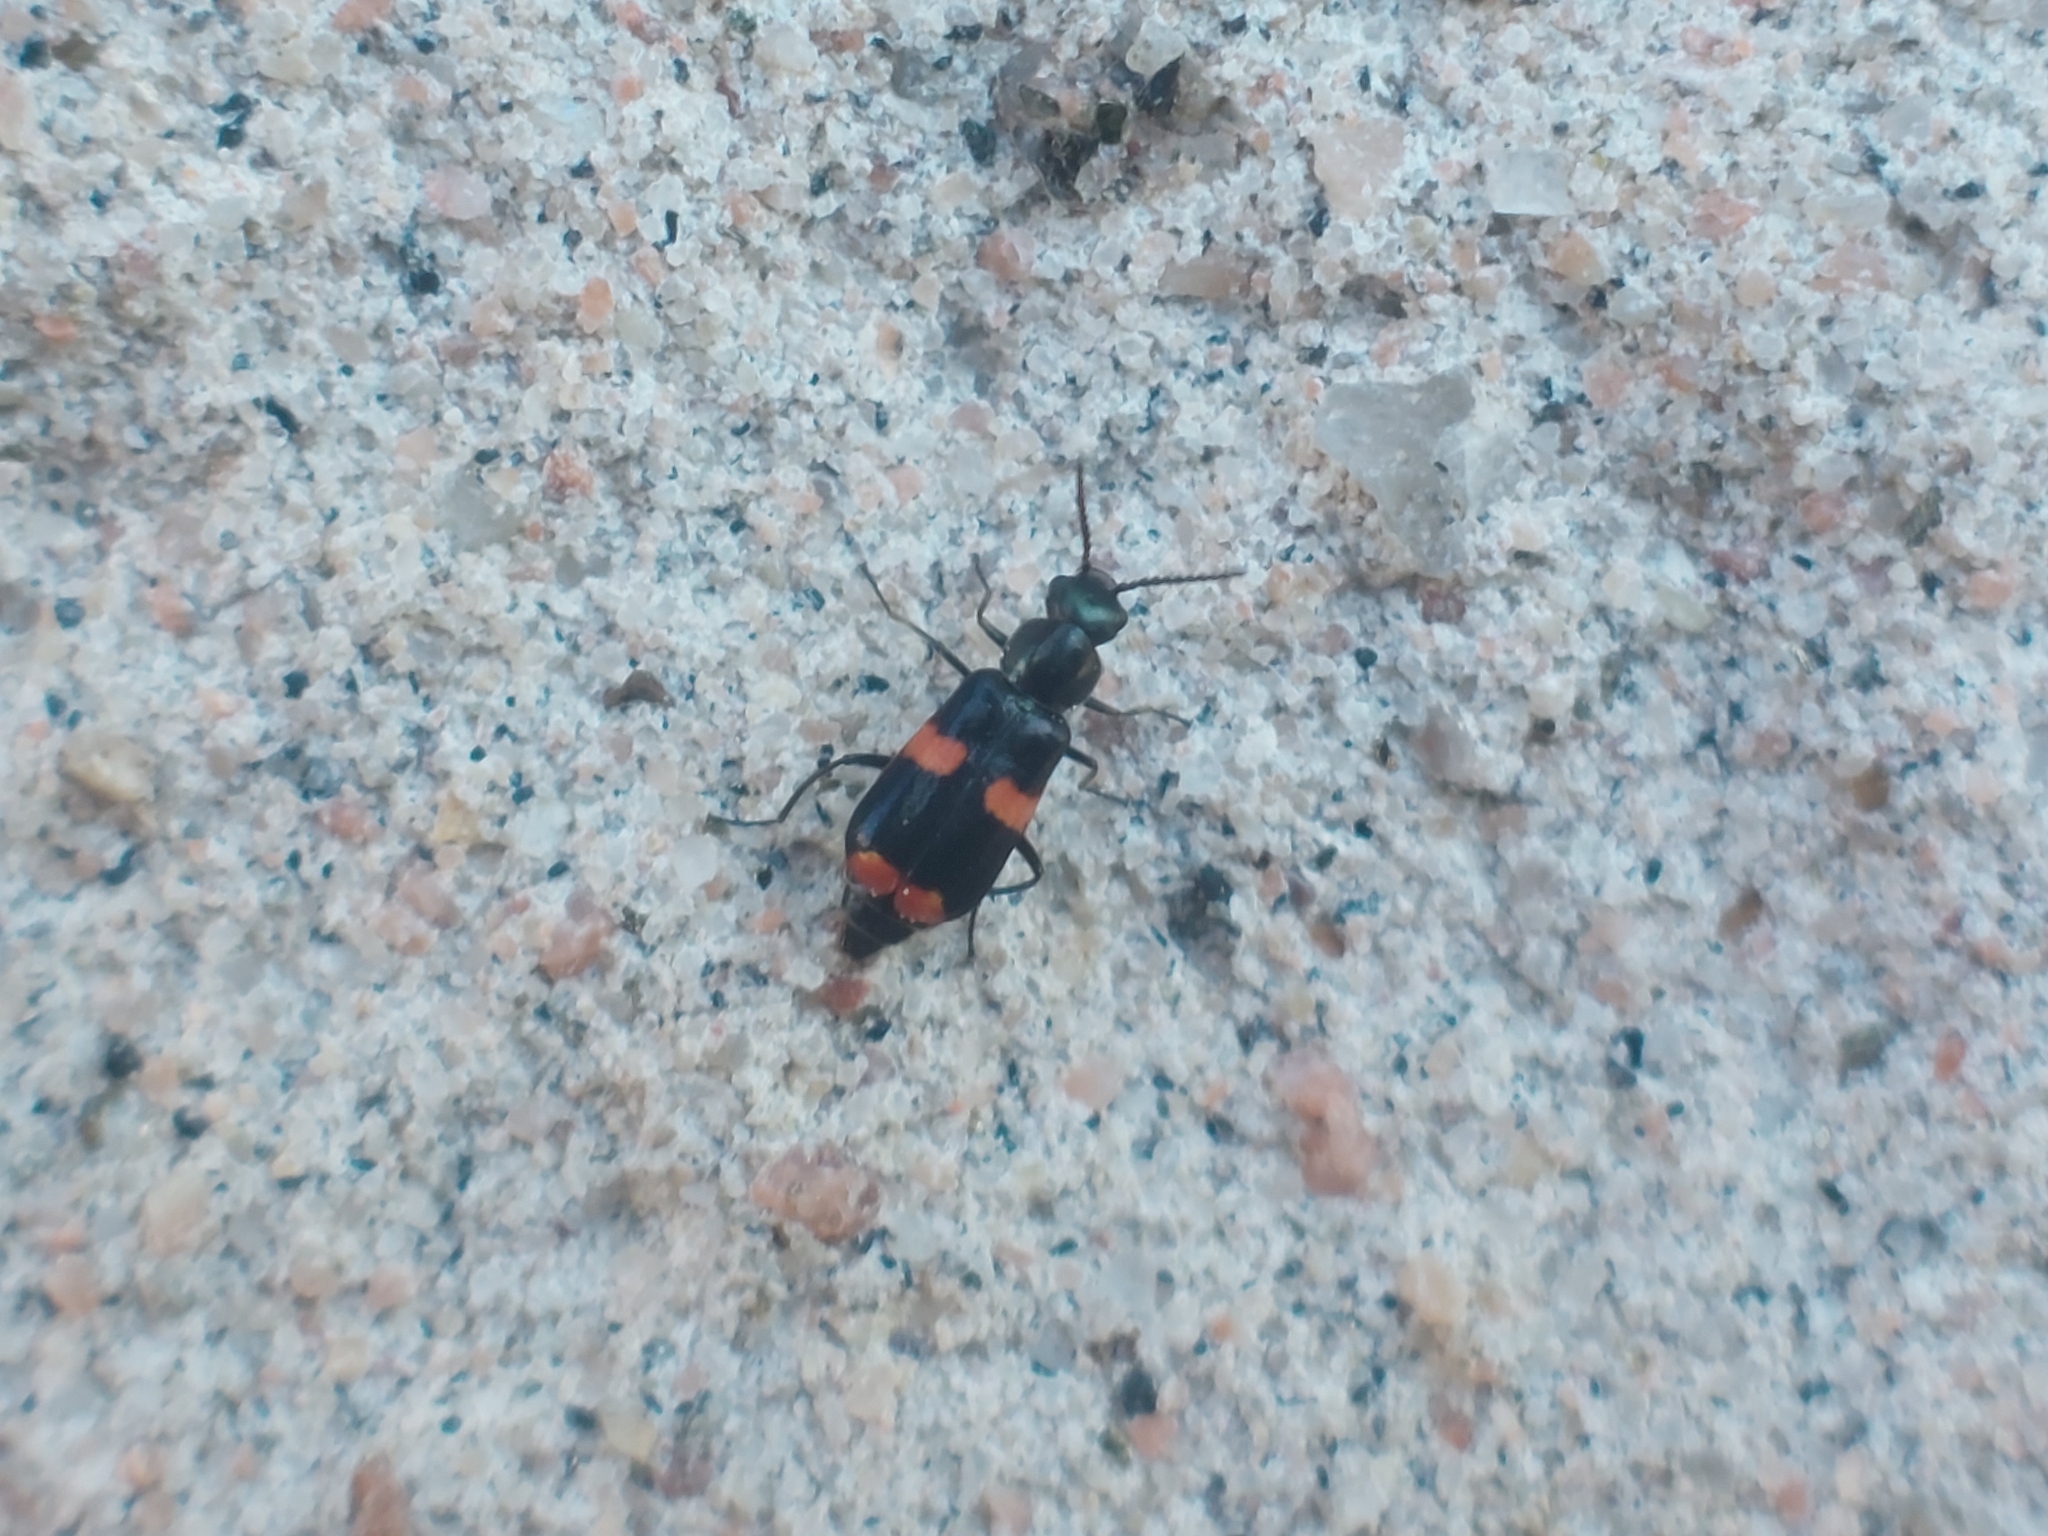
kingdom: Animalia
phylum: Arthropoda
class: Insecta
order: Coleoptera
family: Melyridae
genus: Anthocomus
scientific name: Anthocomus fasciatus
